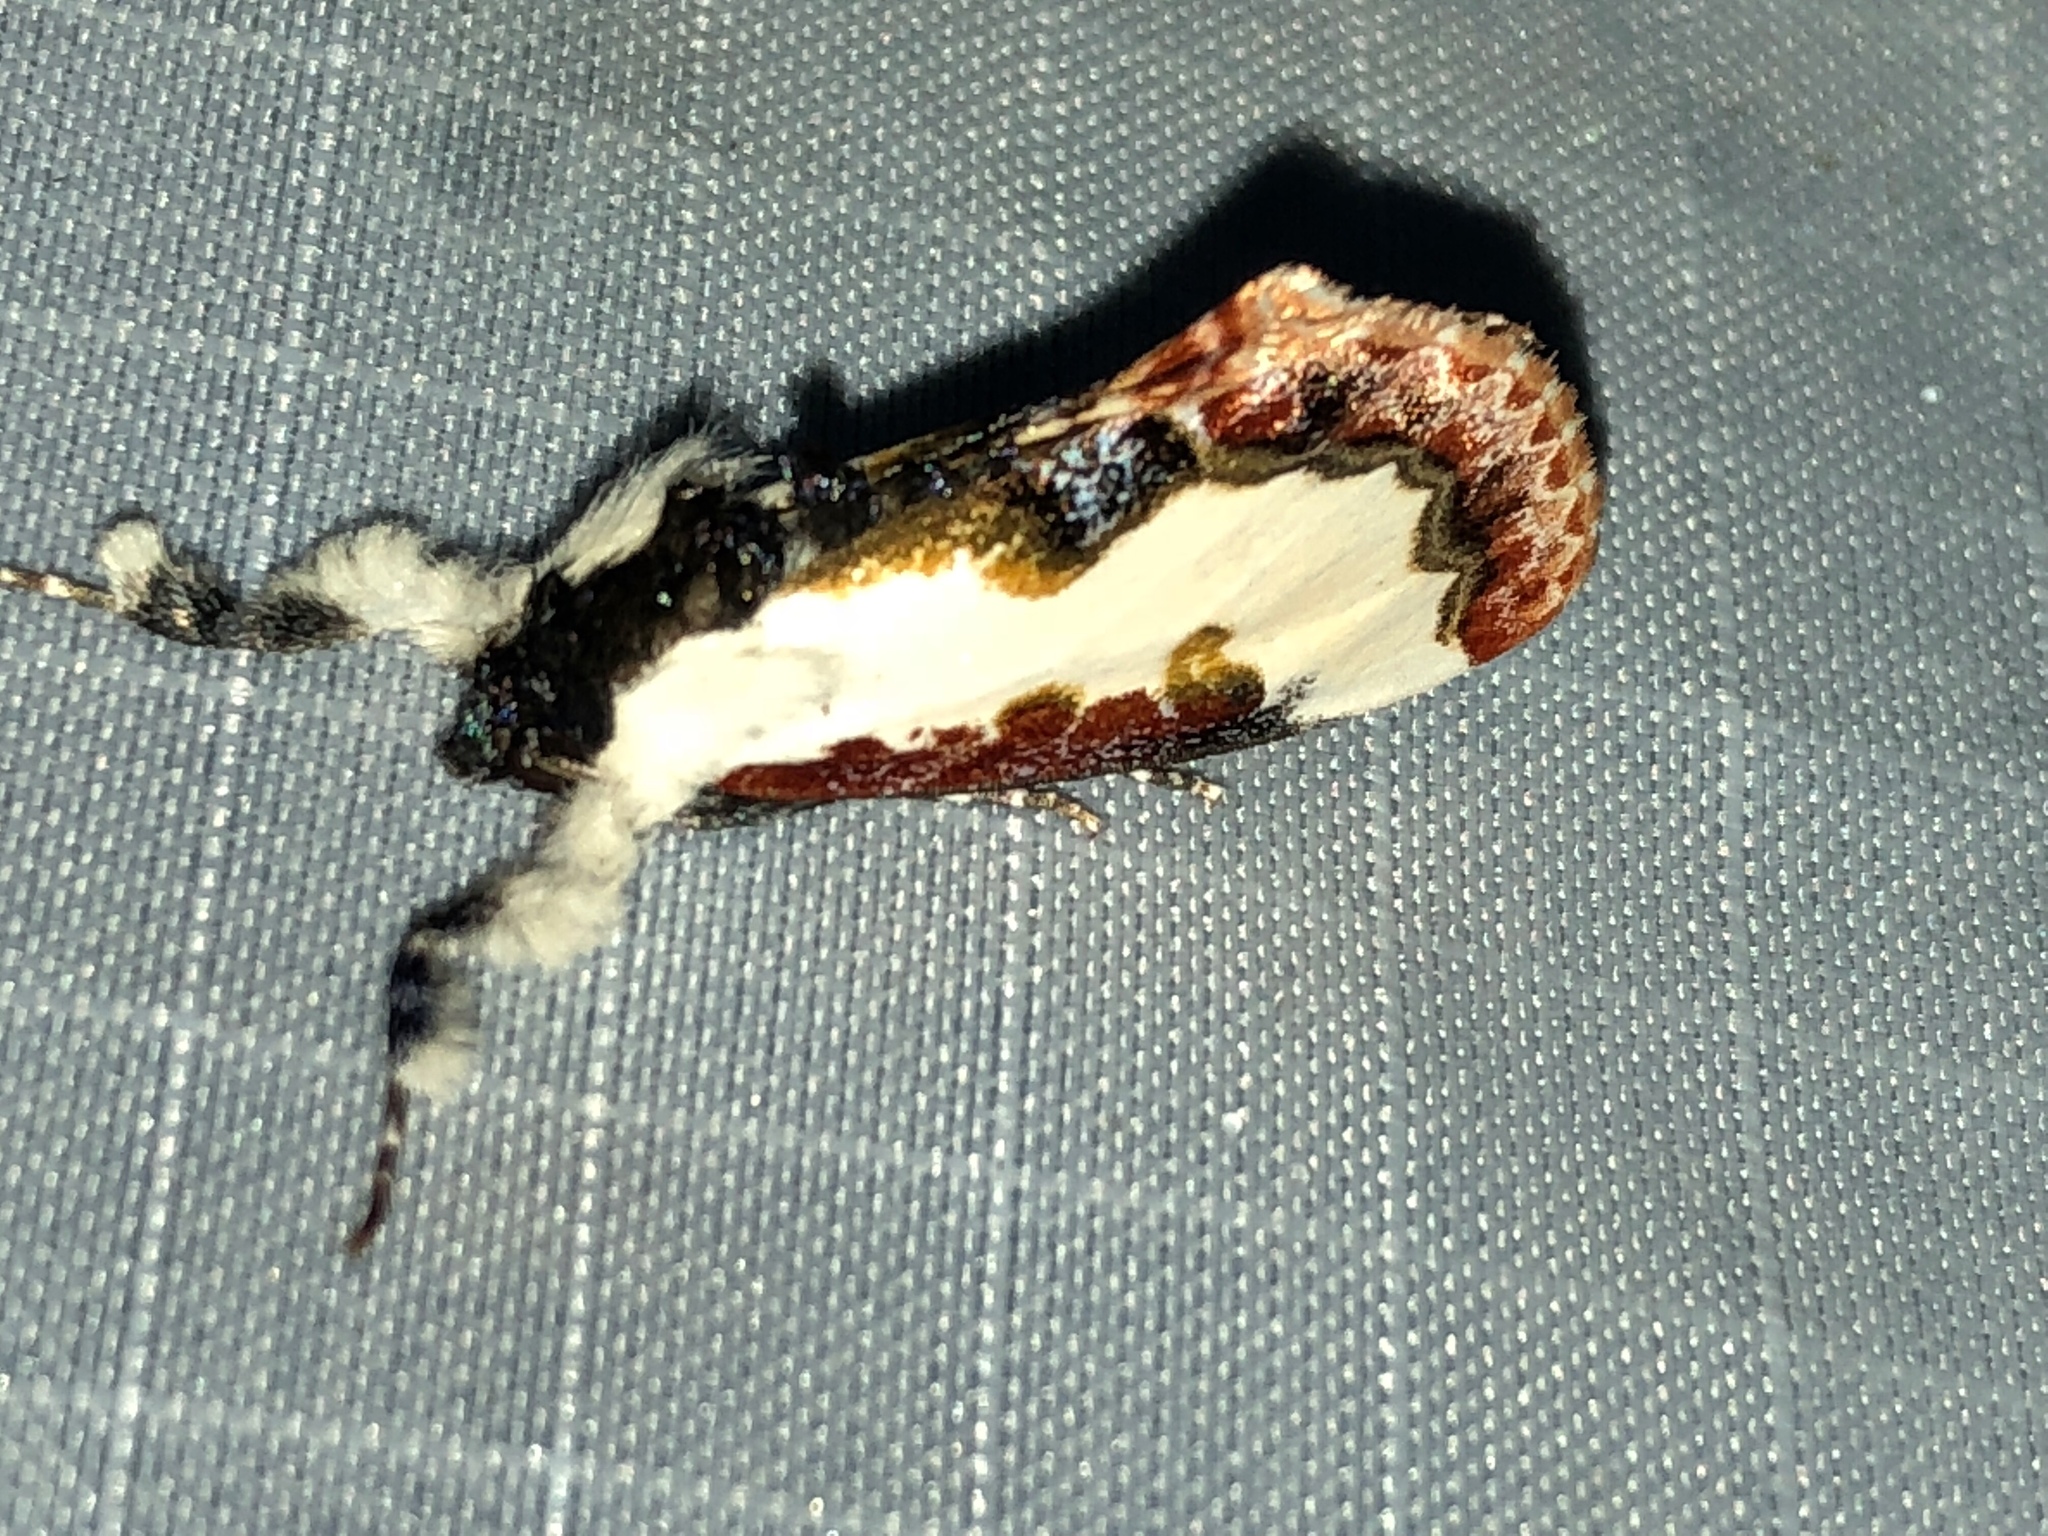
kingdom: Animalia
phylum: Arthropoda
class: Insecta
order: Lepidoptera
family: Noctuidae
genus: Eudryas
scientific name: Eudryas unio
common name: Pearly wood-nymph
